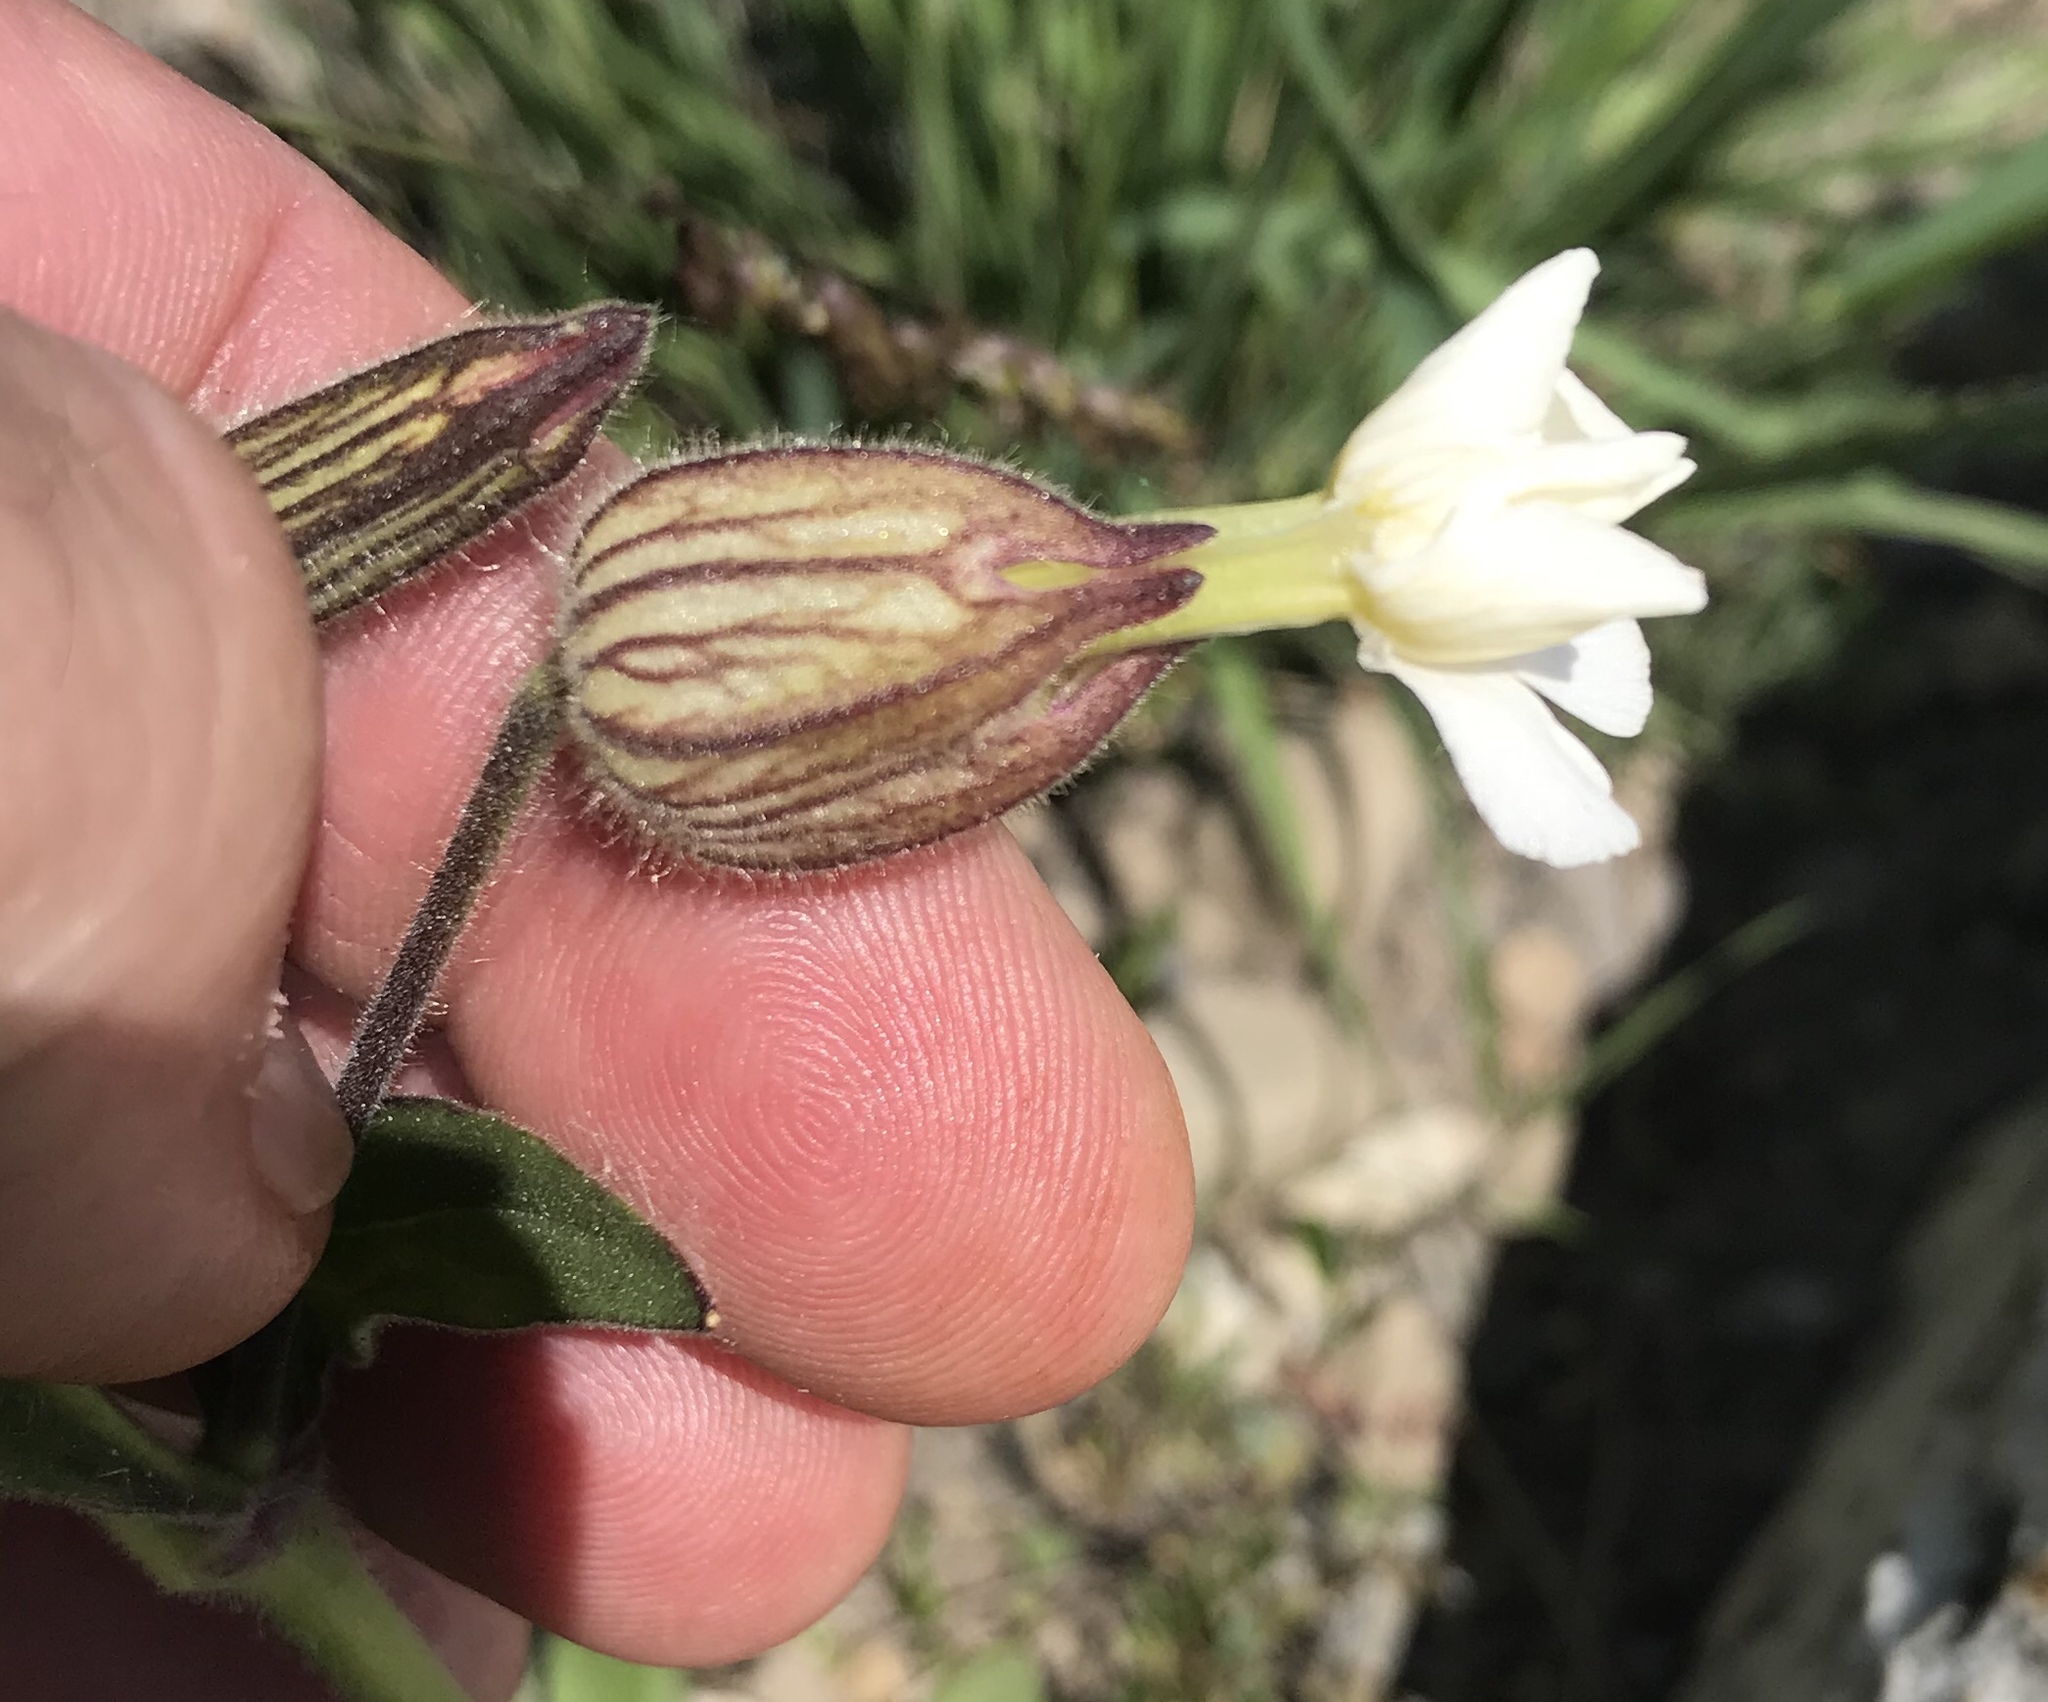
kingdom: Plantae
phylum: Tracheophyta
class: Magnoliopsida
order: Caryophyllales
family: Caryophyllaceae
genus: Silene
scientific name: Silene latifolia
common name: White campion
